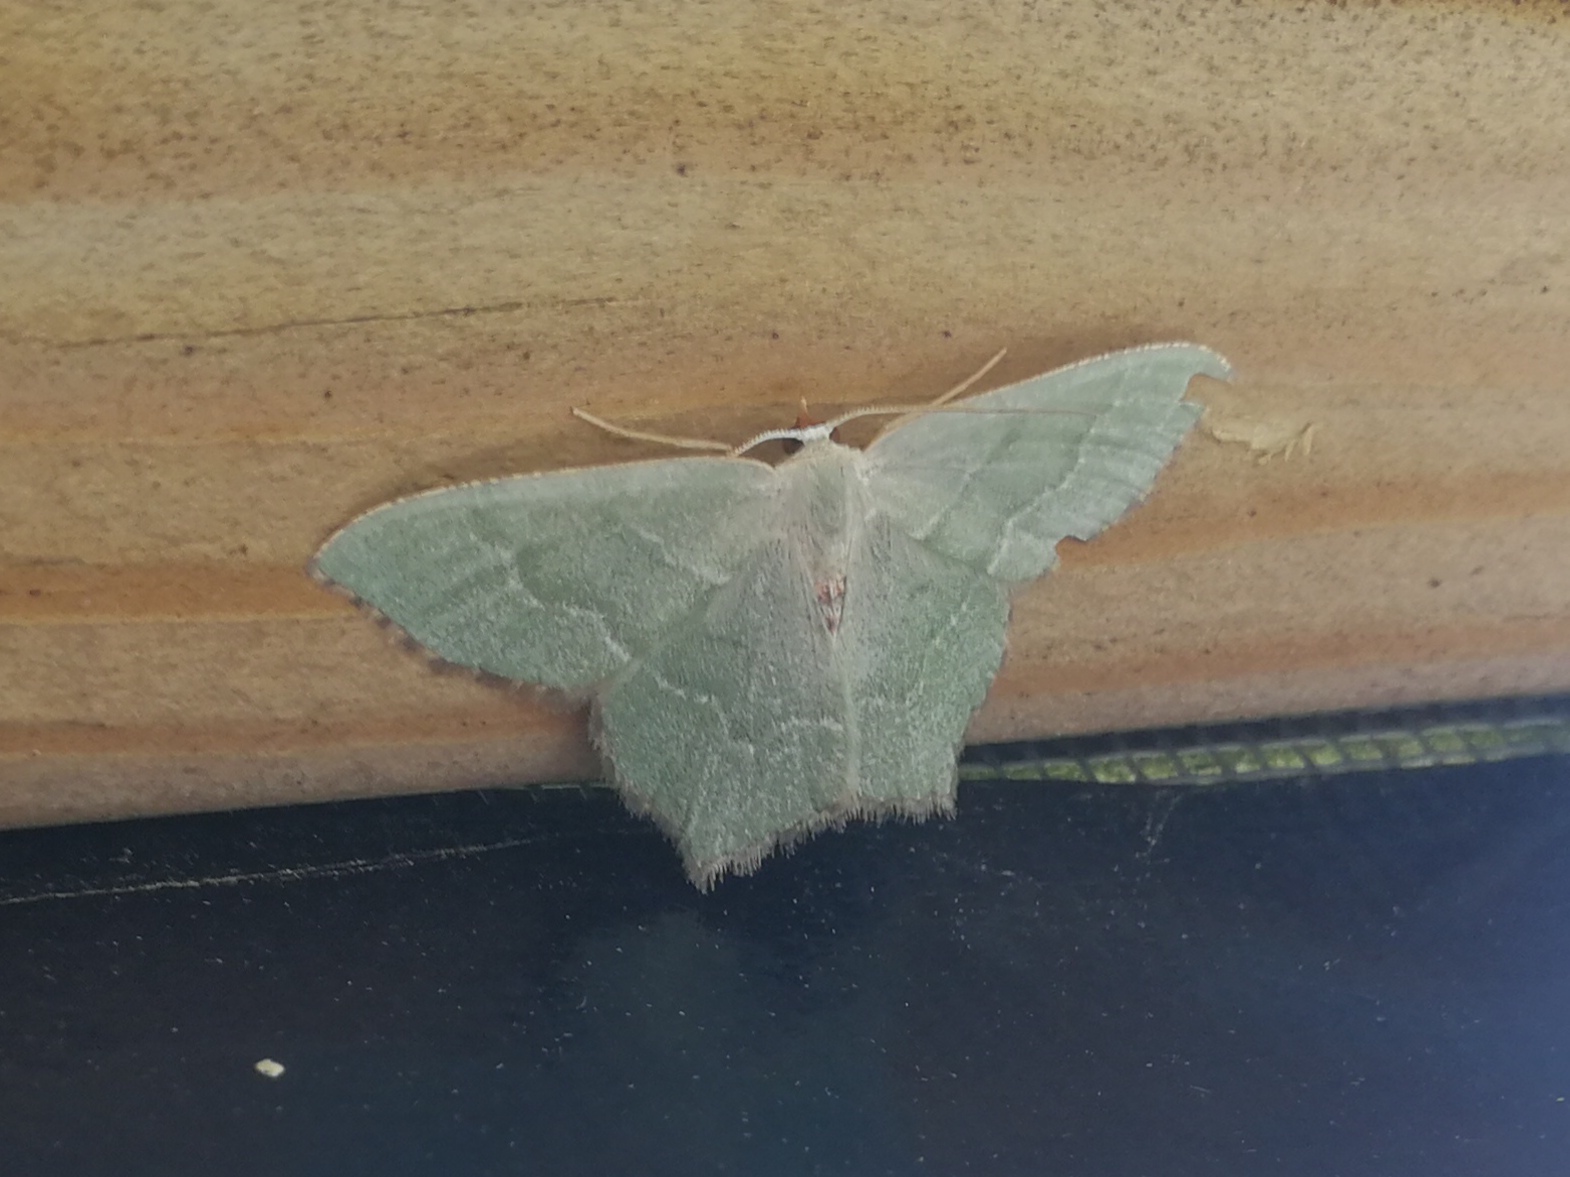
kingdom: Animalia
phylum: Arthropoda
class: Insecta
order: Lepidoptera
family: Geometridae
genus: Hemithea
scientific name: Hemithea aestivaria
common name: Common emerald
